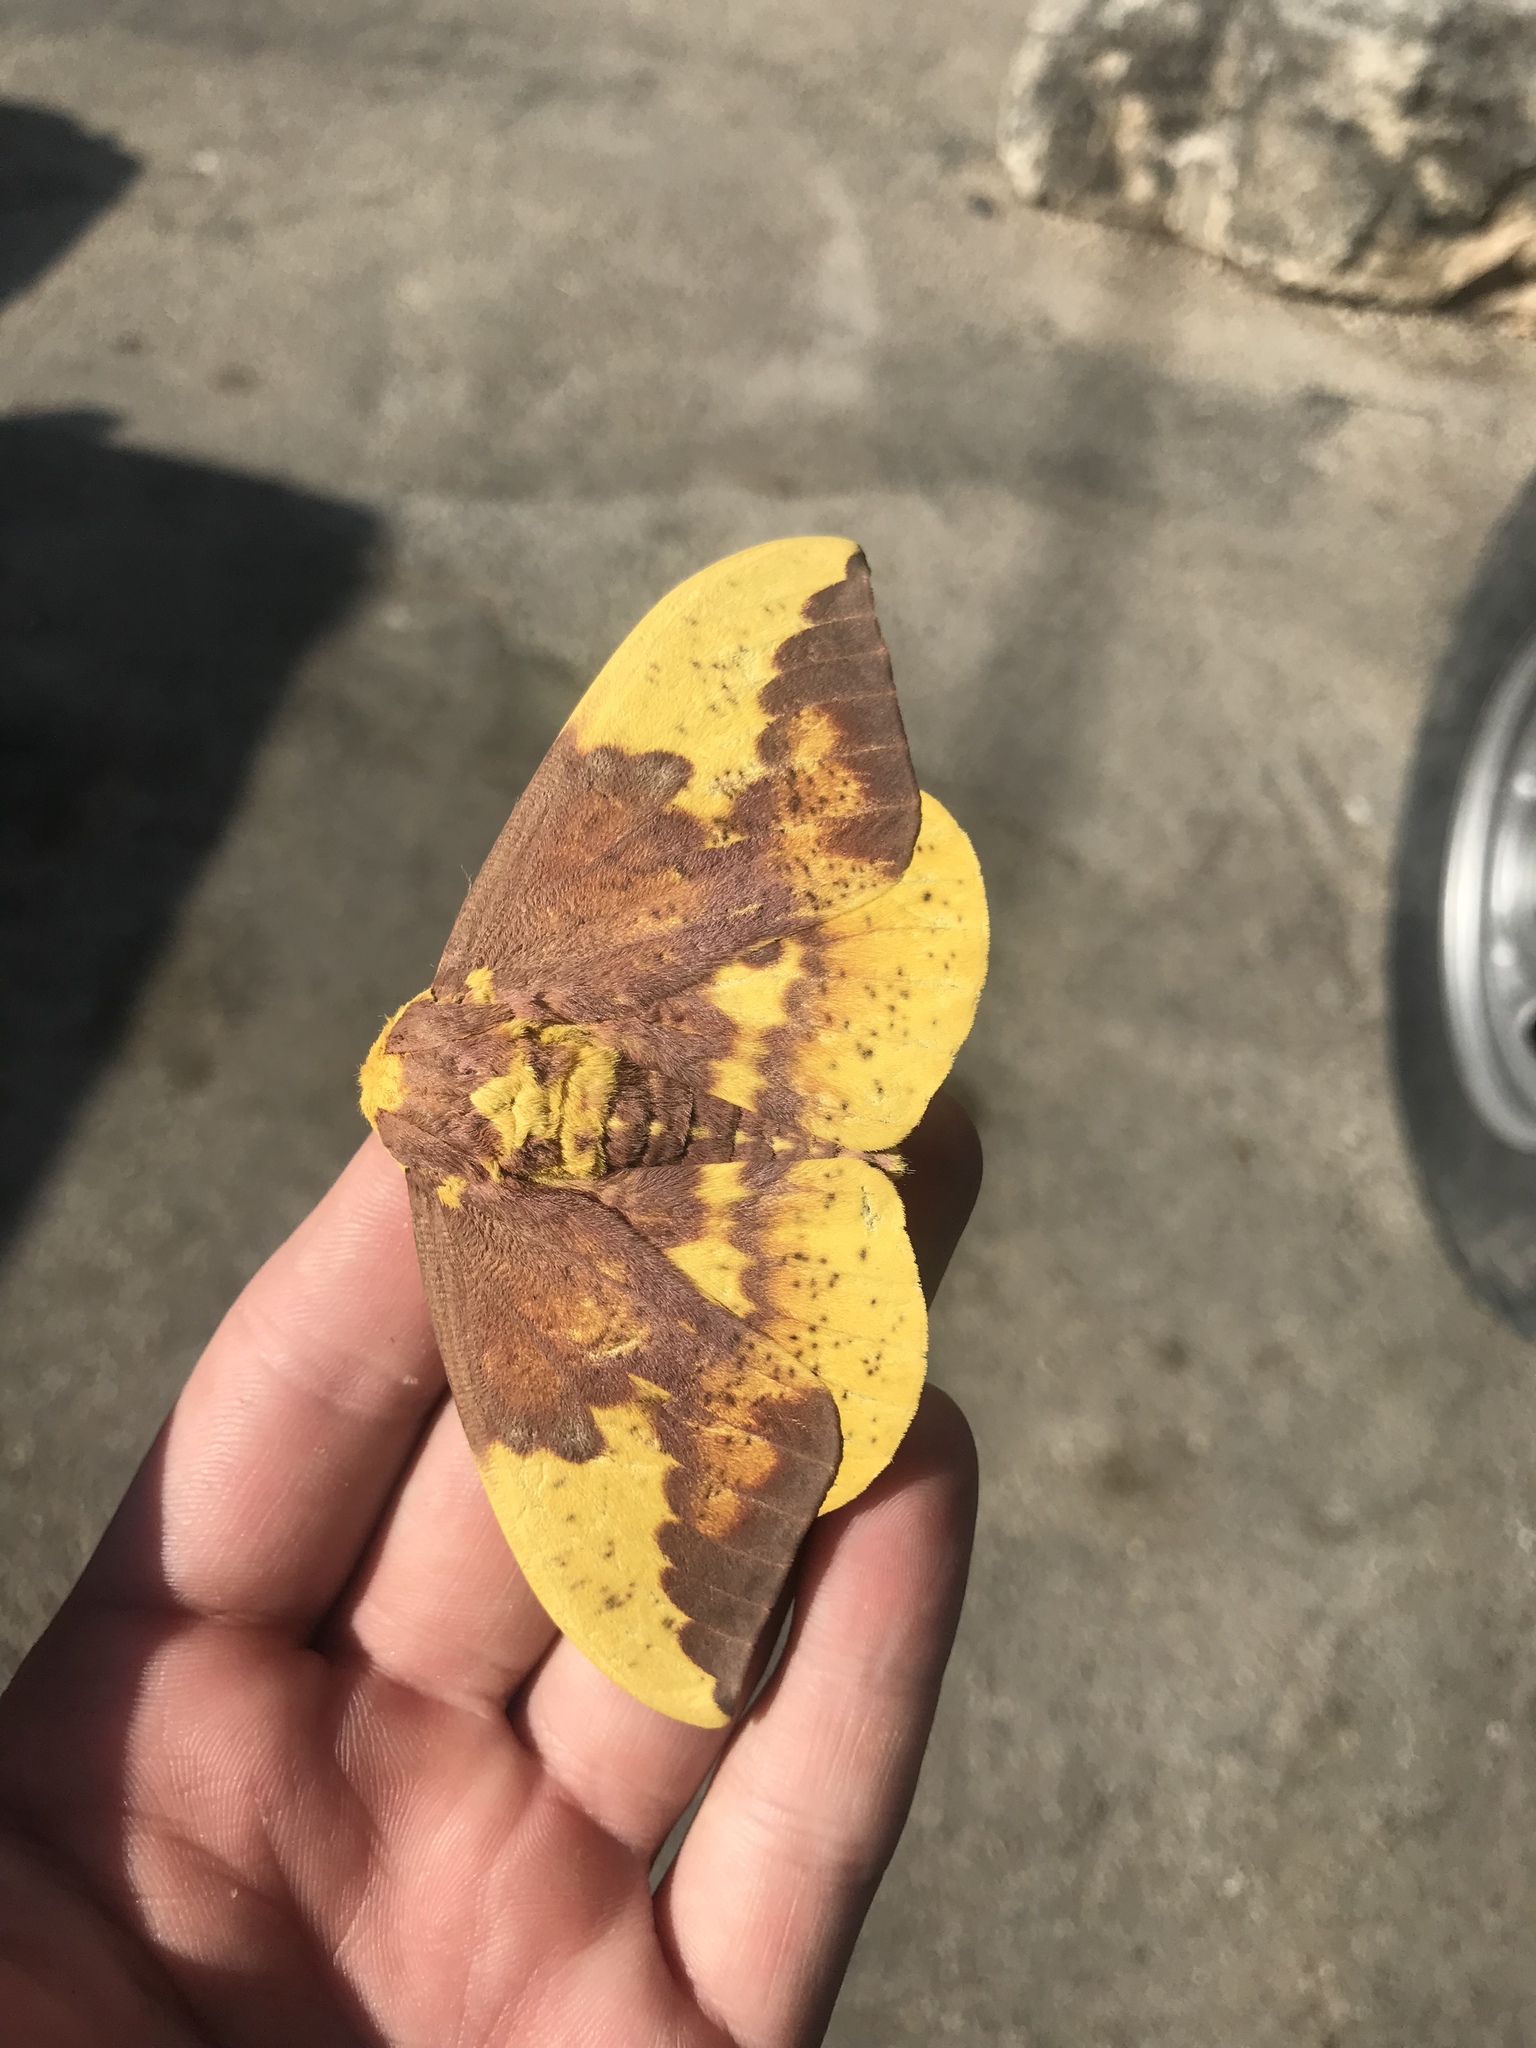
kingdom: Animalia
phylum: Arthropoda
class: Insecta
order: Lepidoptera
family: Saturniidae
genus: Eacles
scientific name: Eacles imperialis
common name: Imperial moth
